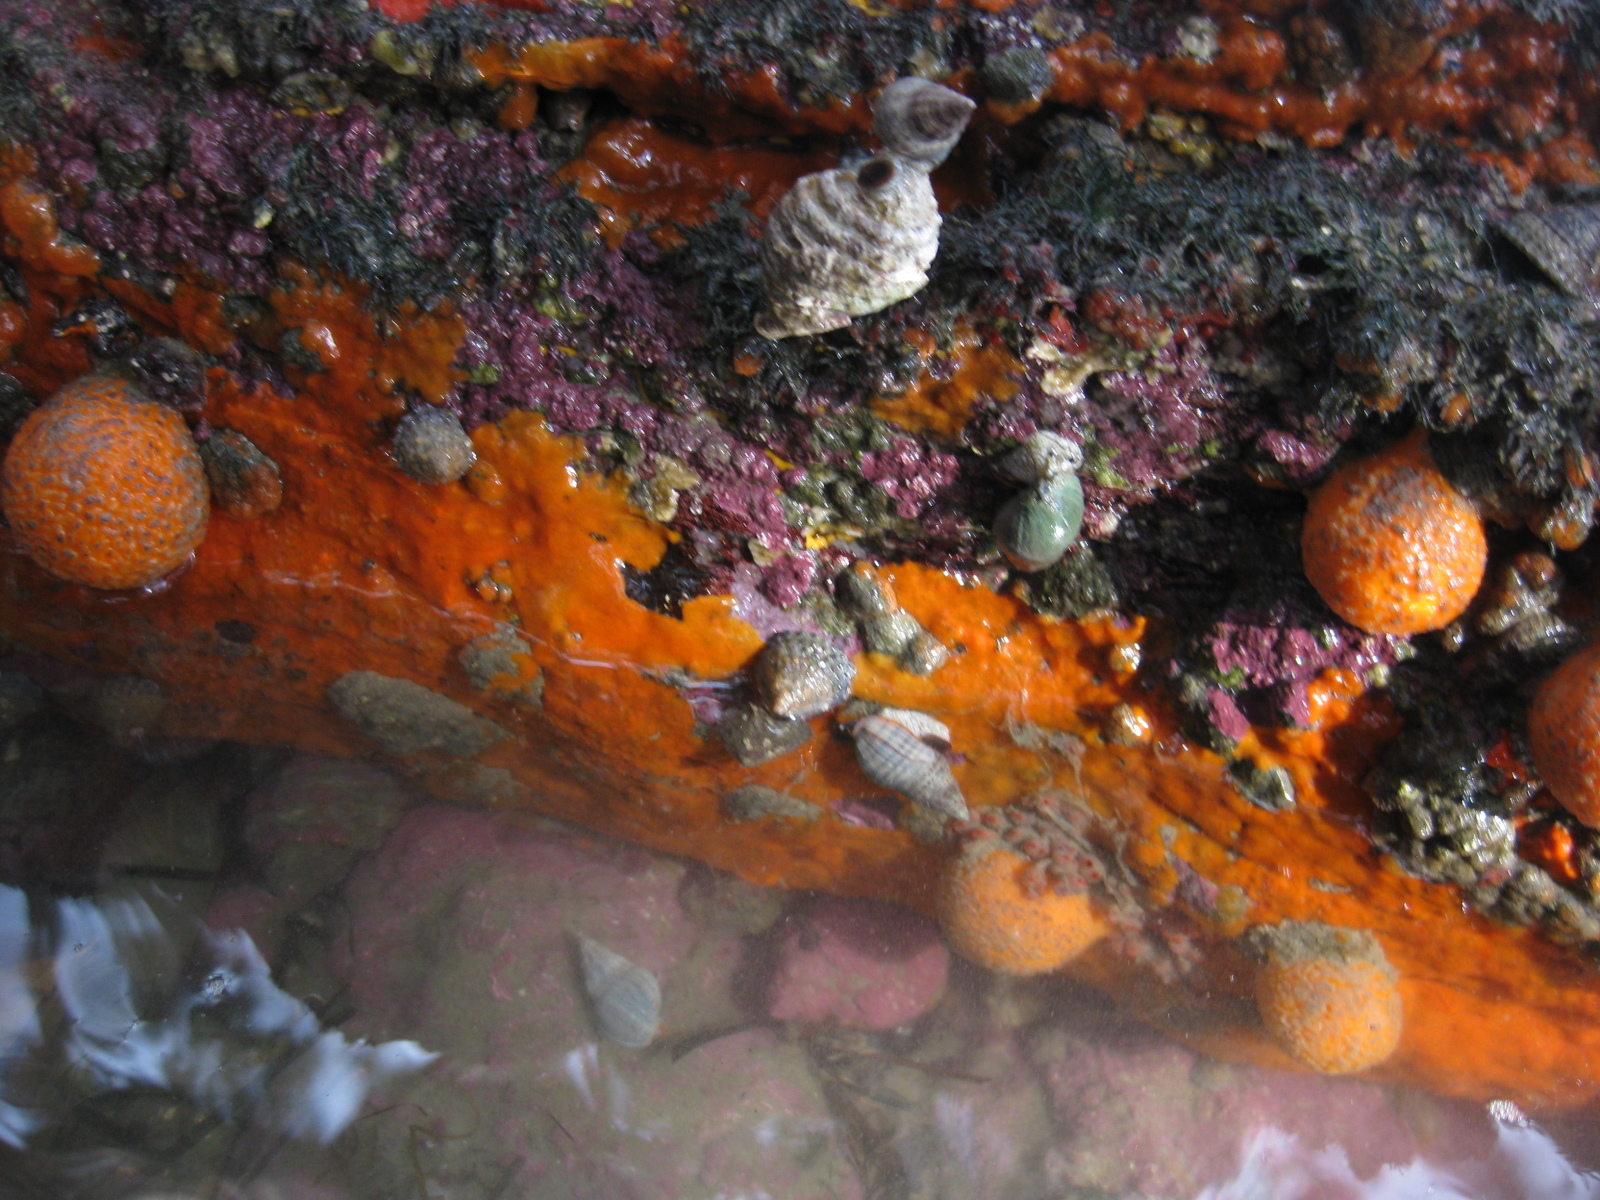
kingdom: Animalia
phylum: Mollusca
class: Gastropoda
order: Trochida
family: Trochidae
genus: Coelotrochus
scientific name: Coelotrochus viridis
